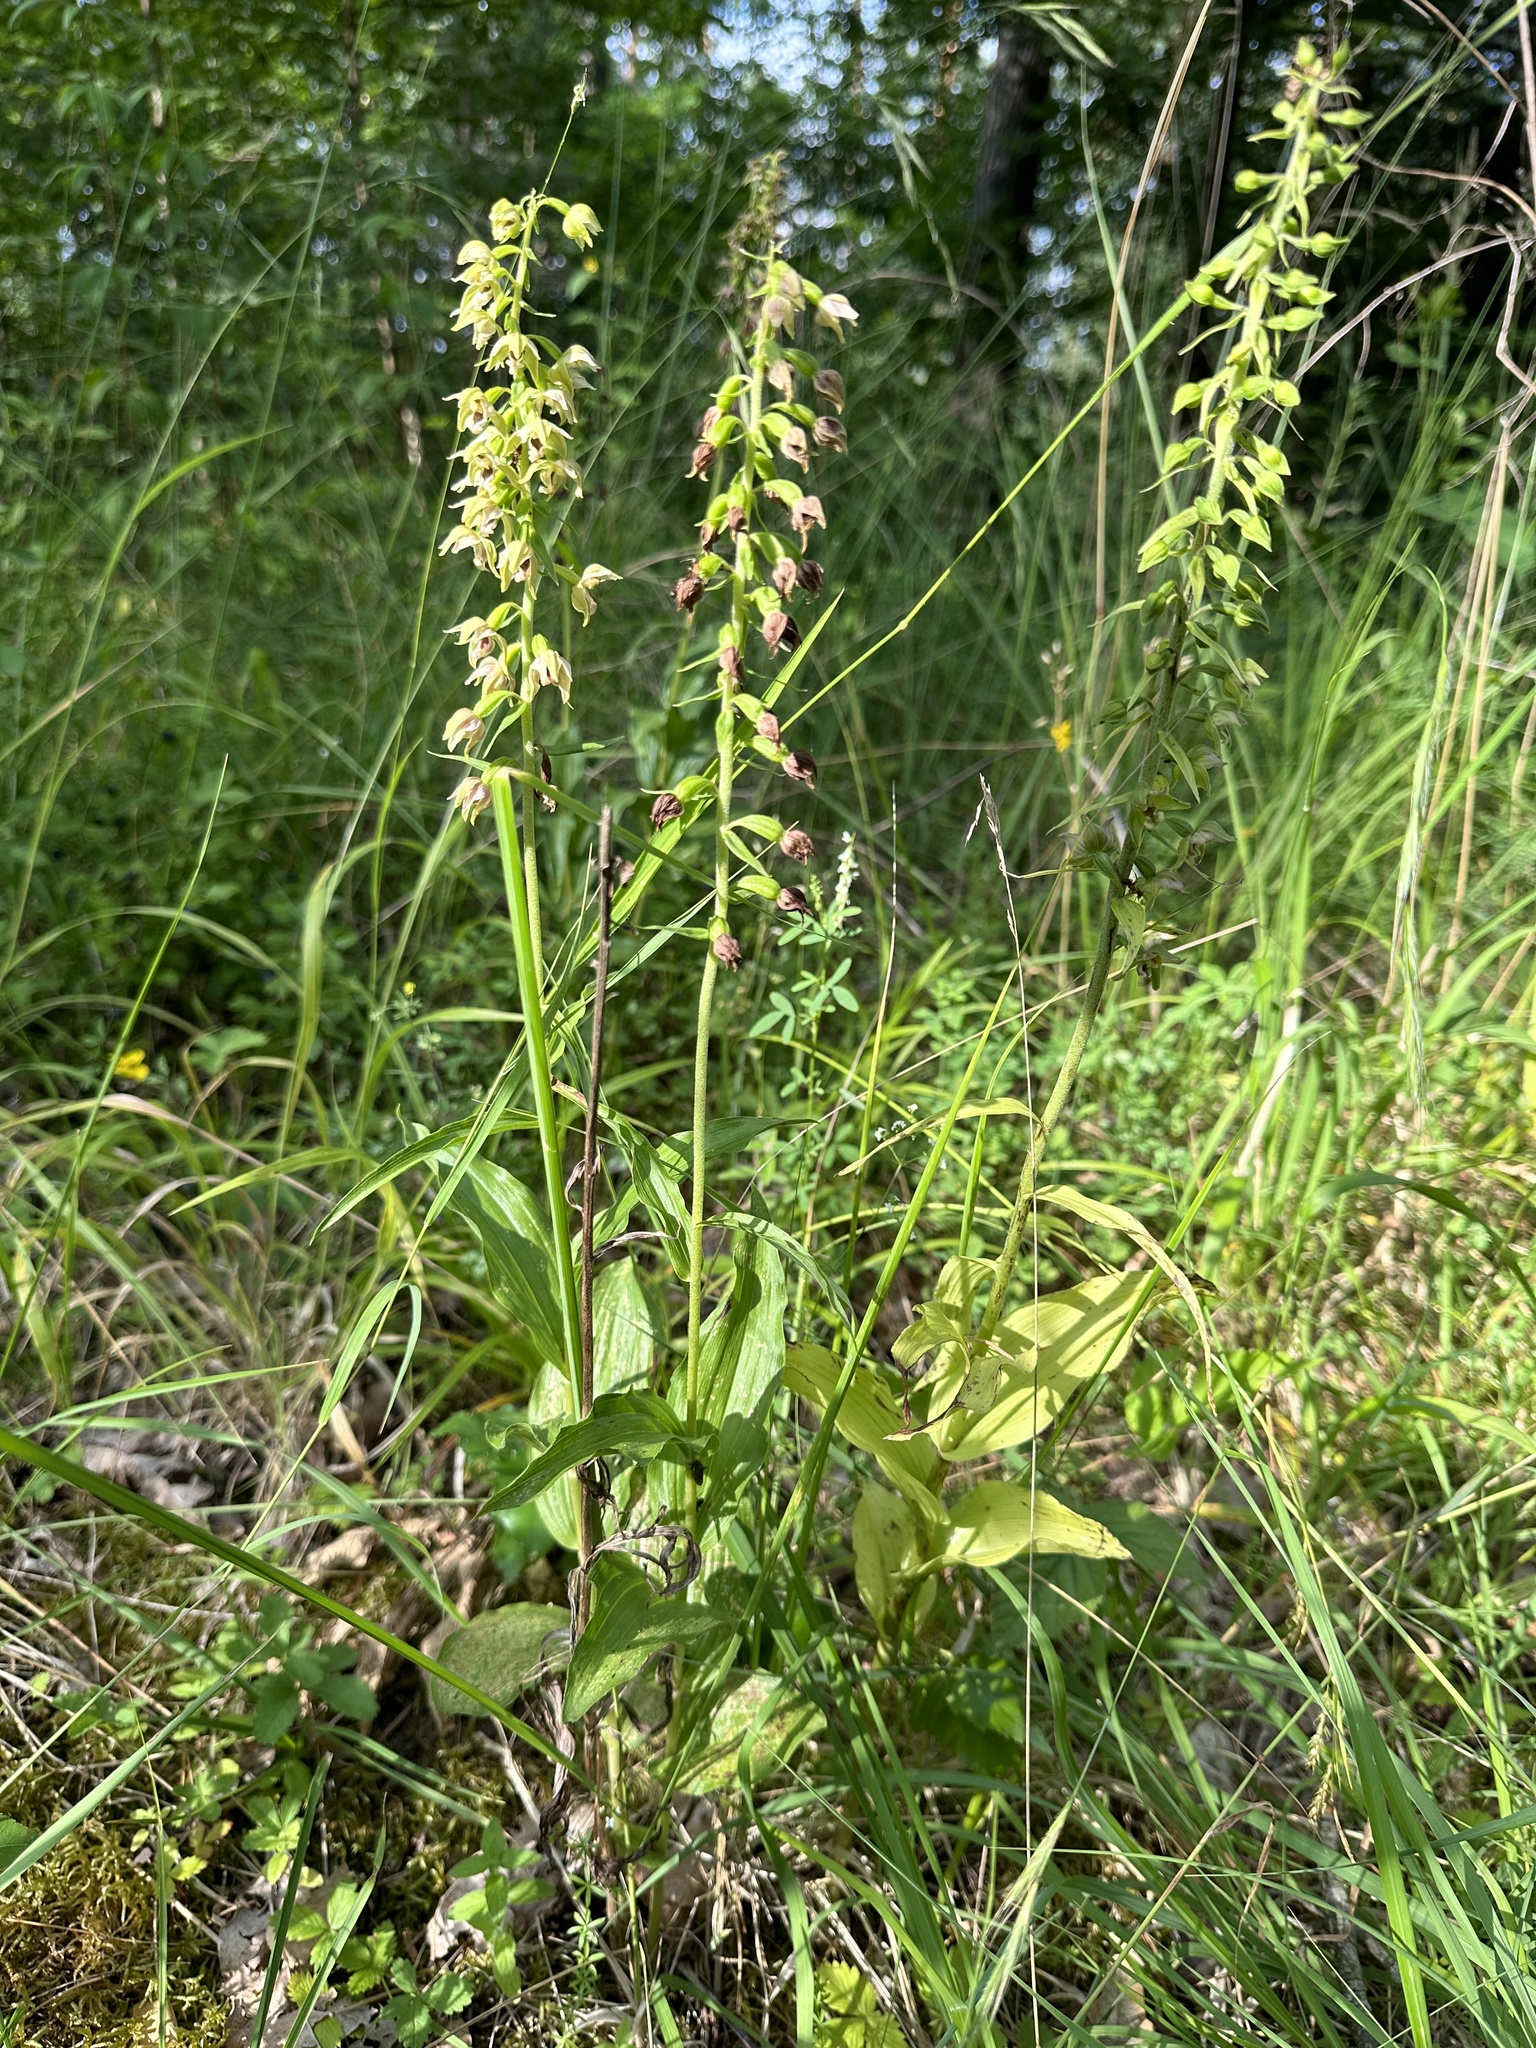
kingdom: Plantae
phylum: Tracheophyta
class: Liliopsida
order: Asparagales
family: Orchidaceae
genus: Epipactis
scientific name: Epipactis helleborine
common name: Broad-leaved helleborine
